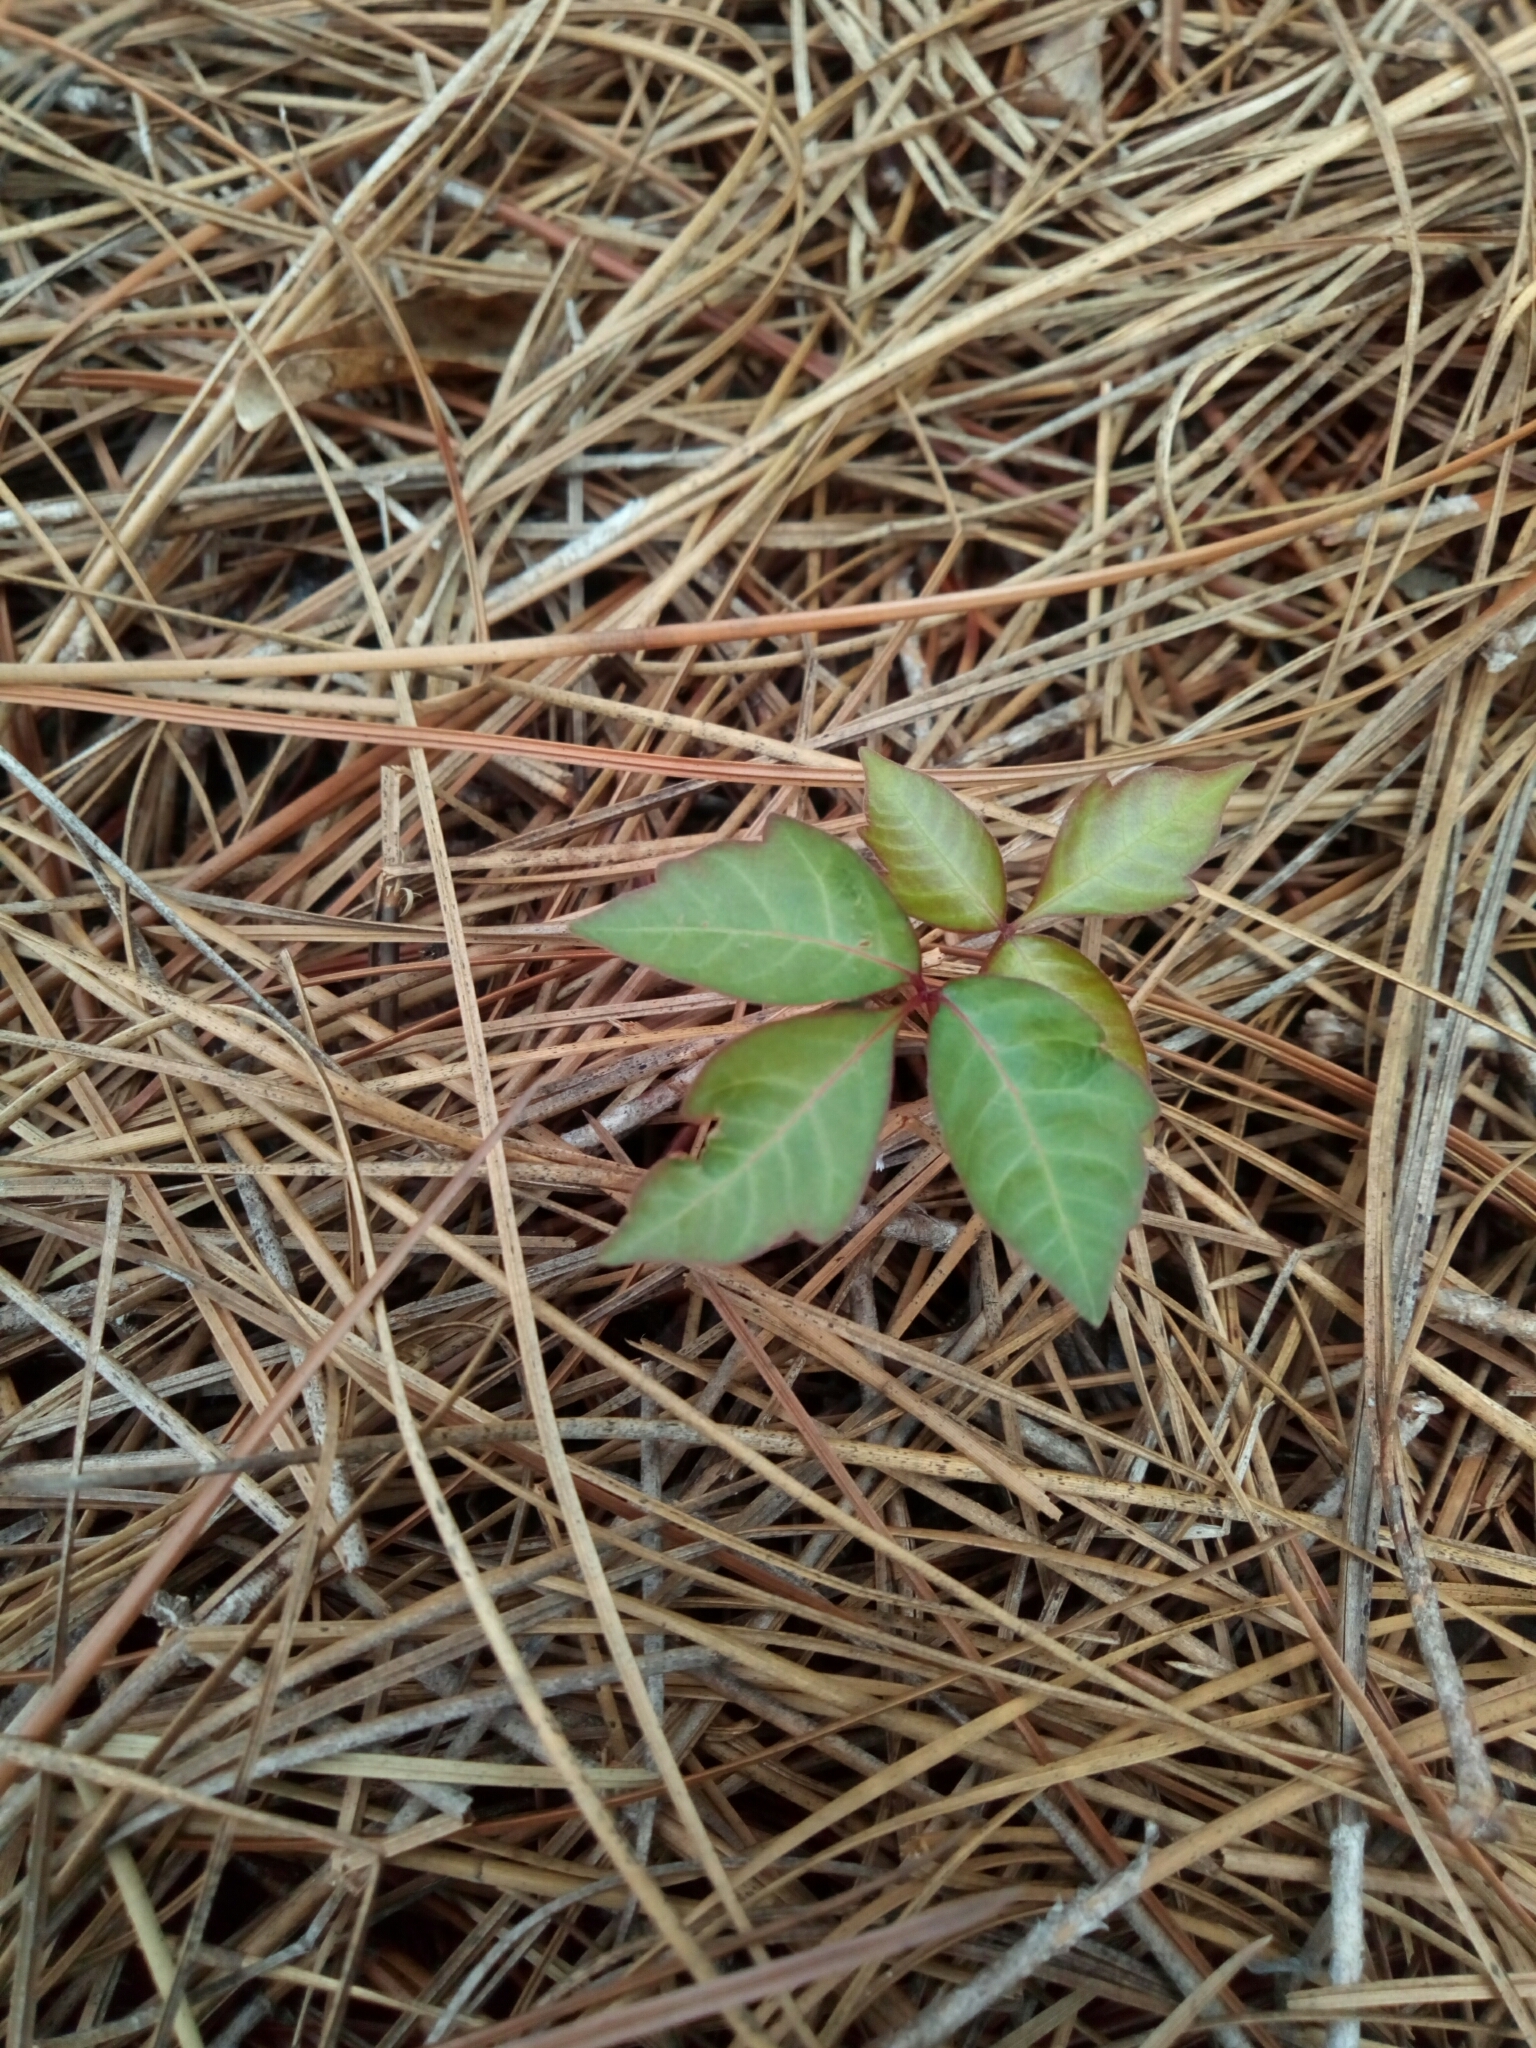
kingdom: Plantae
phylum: Tracheophyta
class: Magnoliopsida
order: Sapindales
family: Anacardiaceae
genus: Toxicodendron
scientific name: Toxicodendron radicans
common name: Poison ivy
